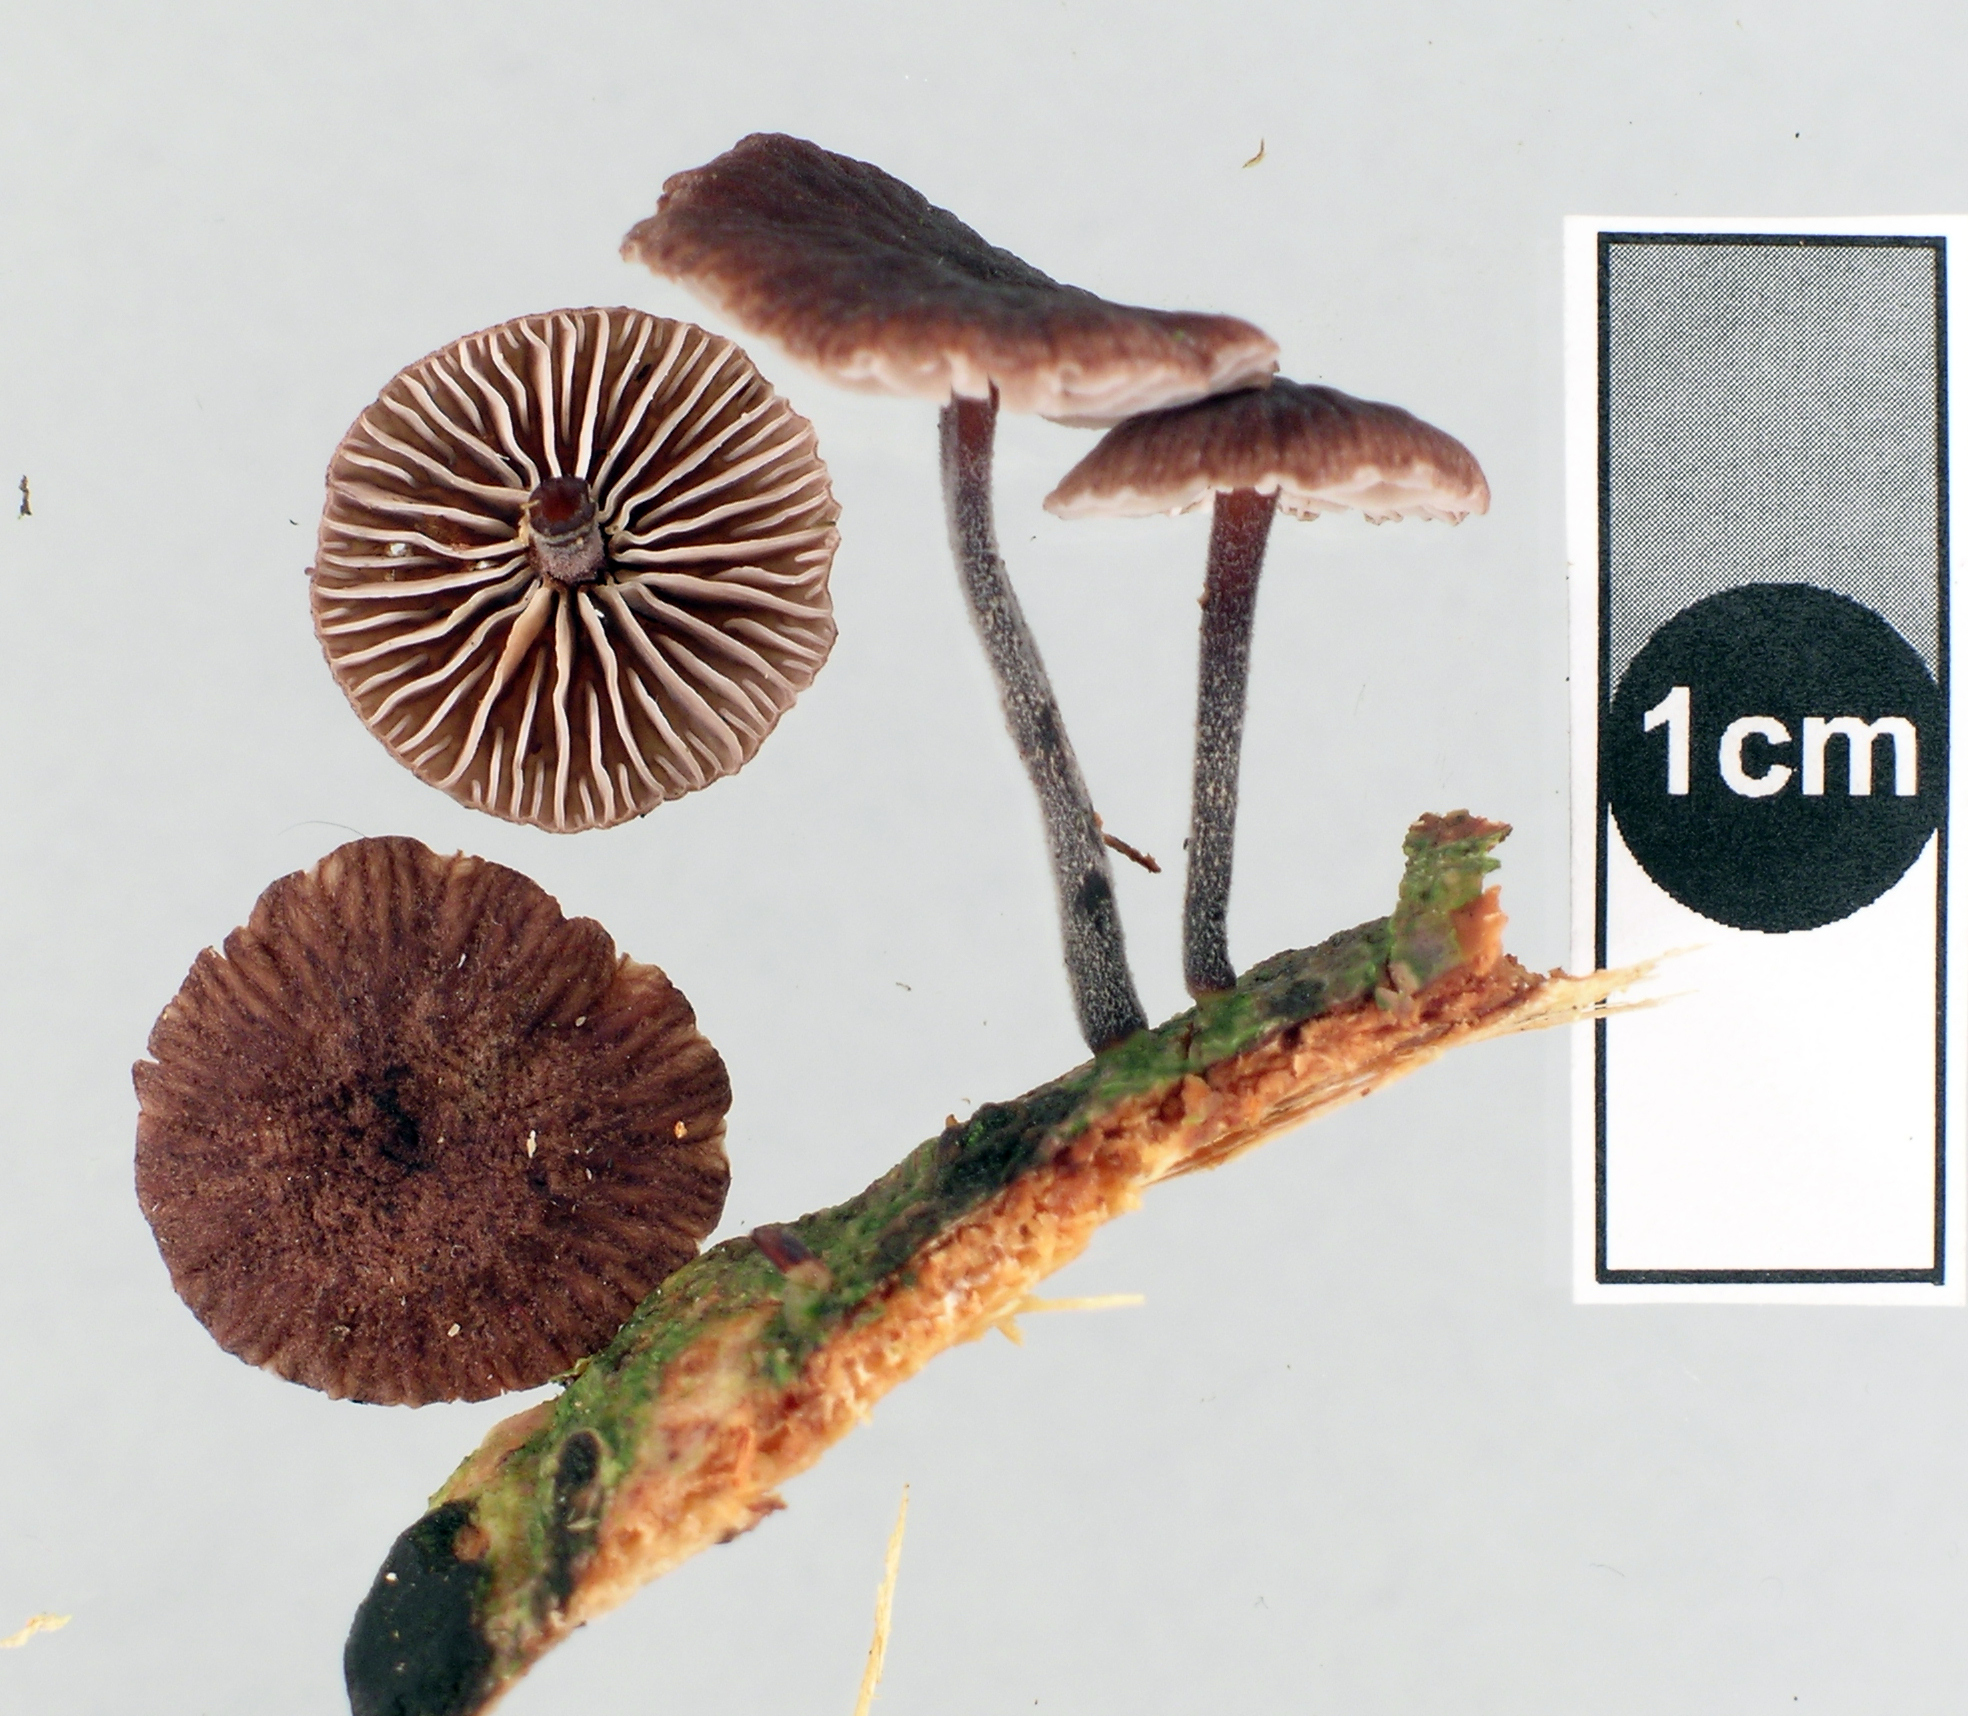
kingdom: Fungi
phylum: Basidiomycota
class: Agaricomycetes
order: Agaricales
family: Omphalotaceae
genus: Gymnopus
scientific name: Gymnopus ceraceicola
